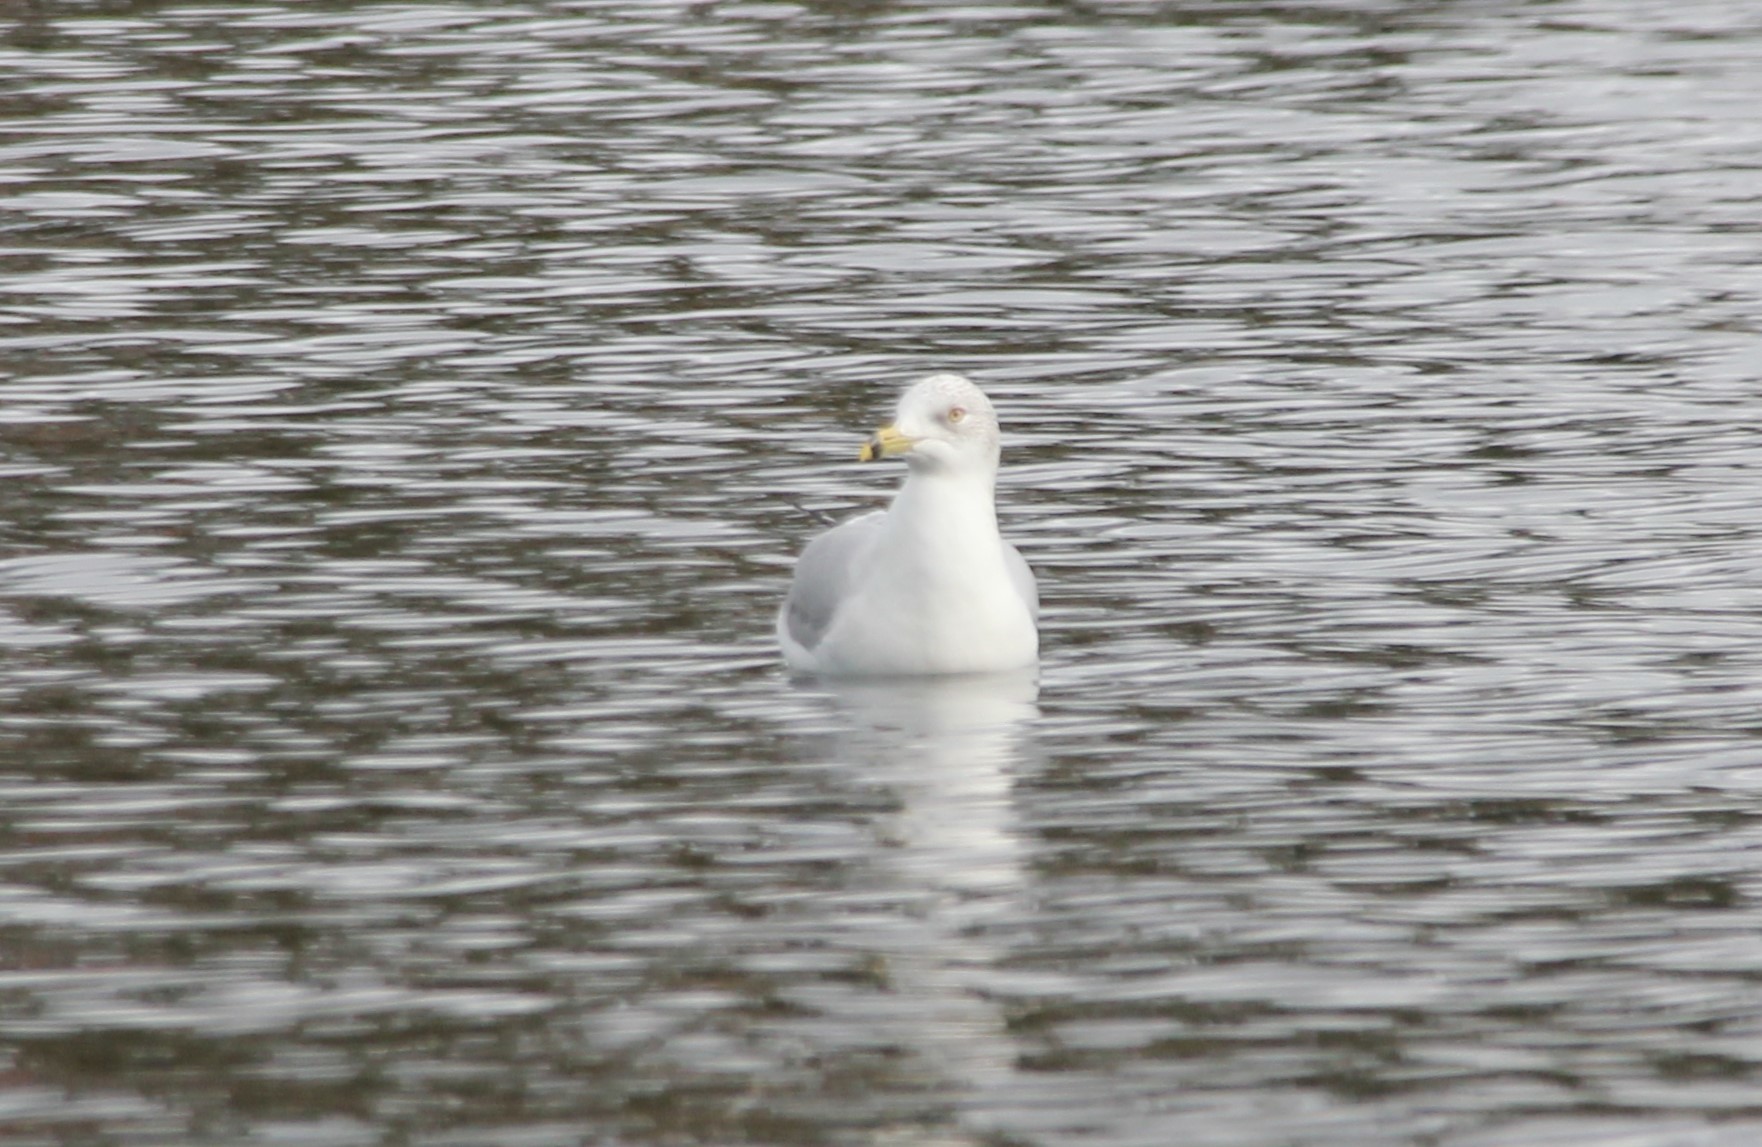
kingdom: Animalia
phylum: Chordata
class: Aves
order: Charadriiformes
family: Laridae
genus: Larus
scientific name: Larus delawarensis
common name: Ring-billed gull
